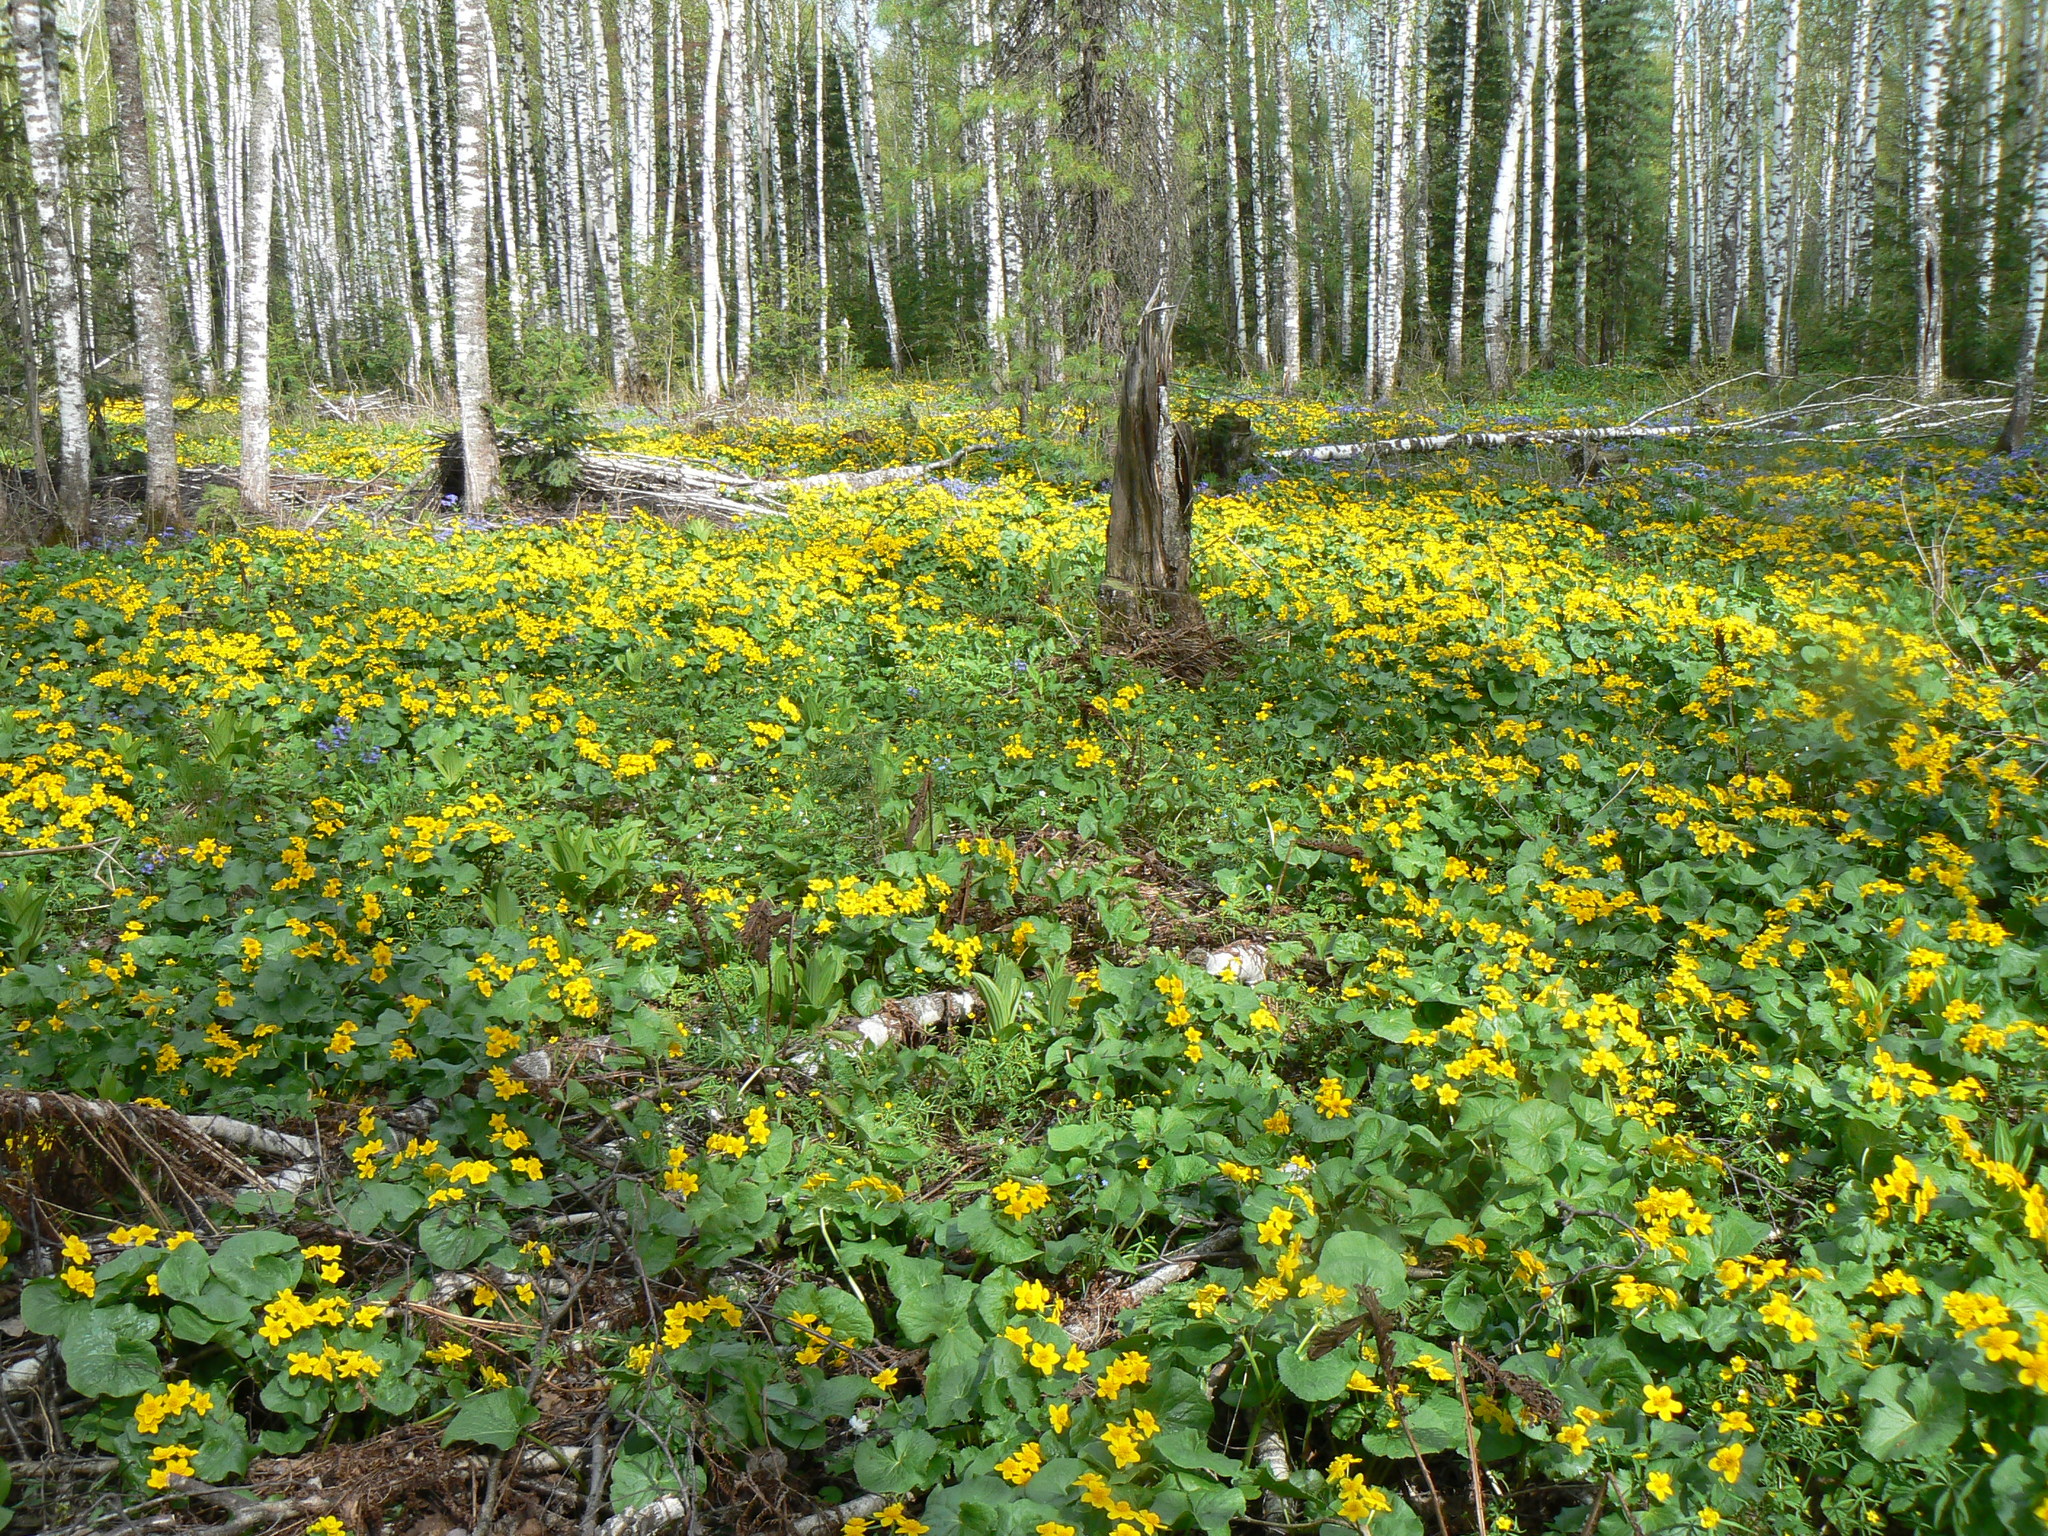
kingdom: Plantae
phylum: Tracheophyta
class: Magnoliopsida
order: Ranunculales
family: Ranunculaceae
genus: Caltha
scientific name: Caltha palustris
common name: Marsh marigold
